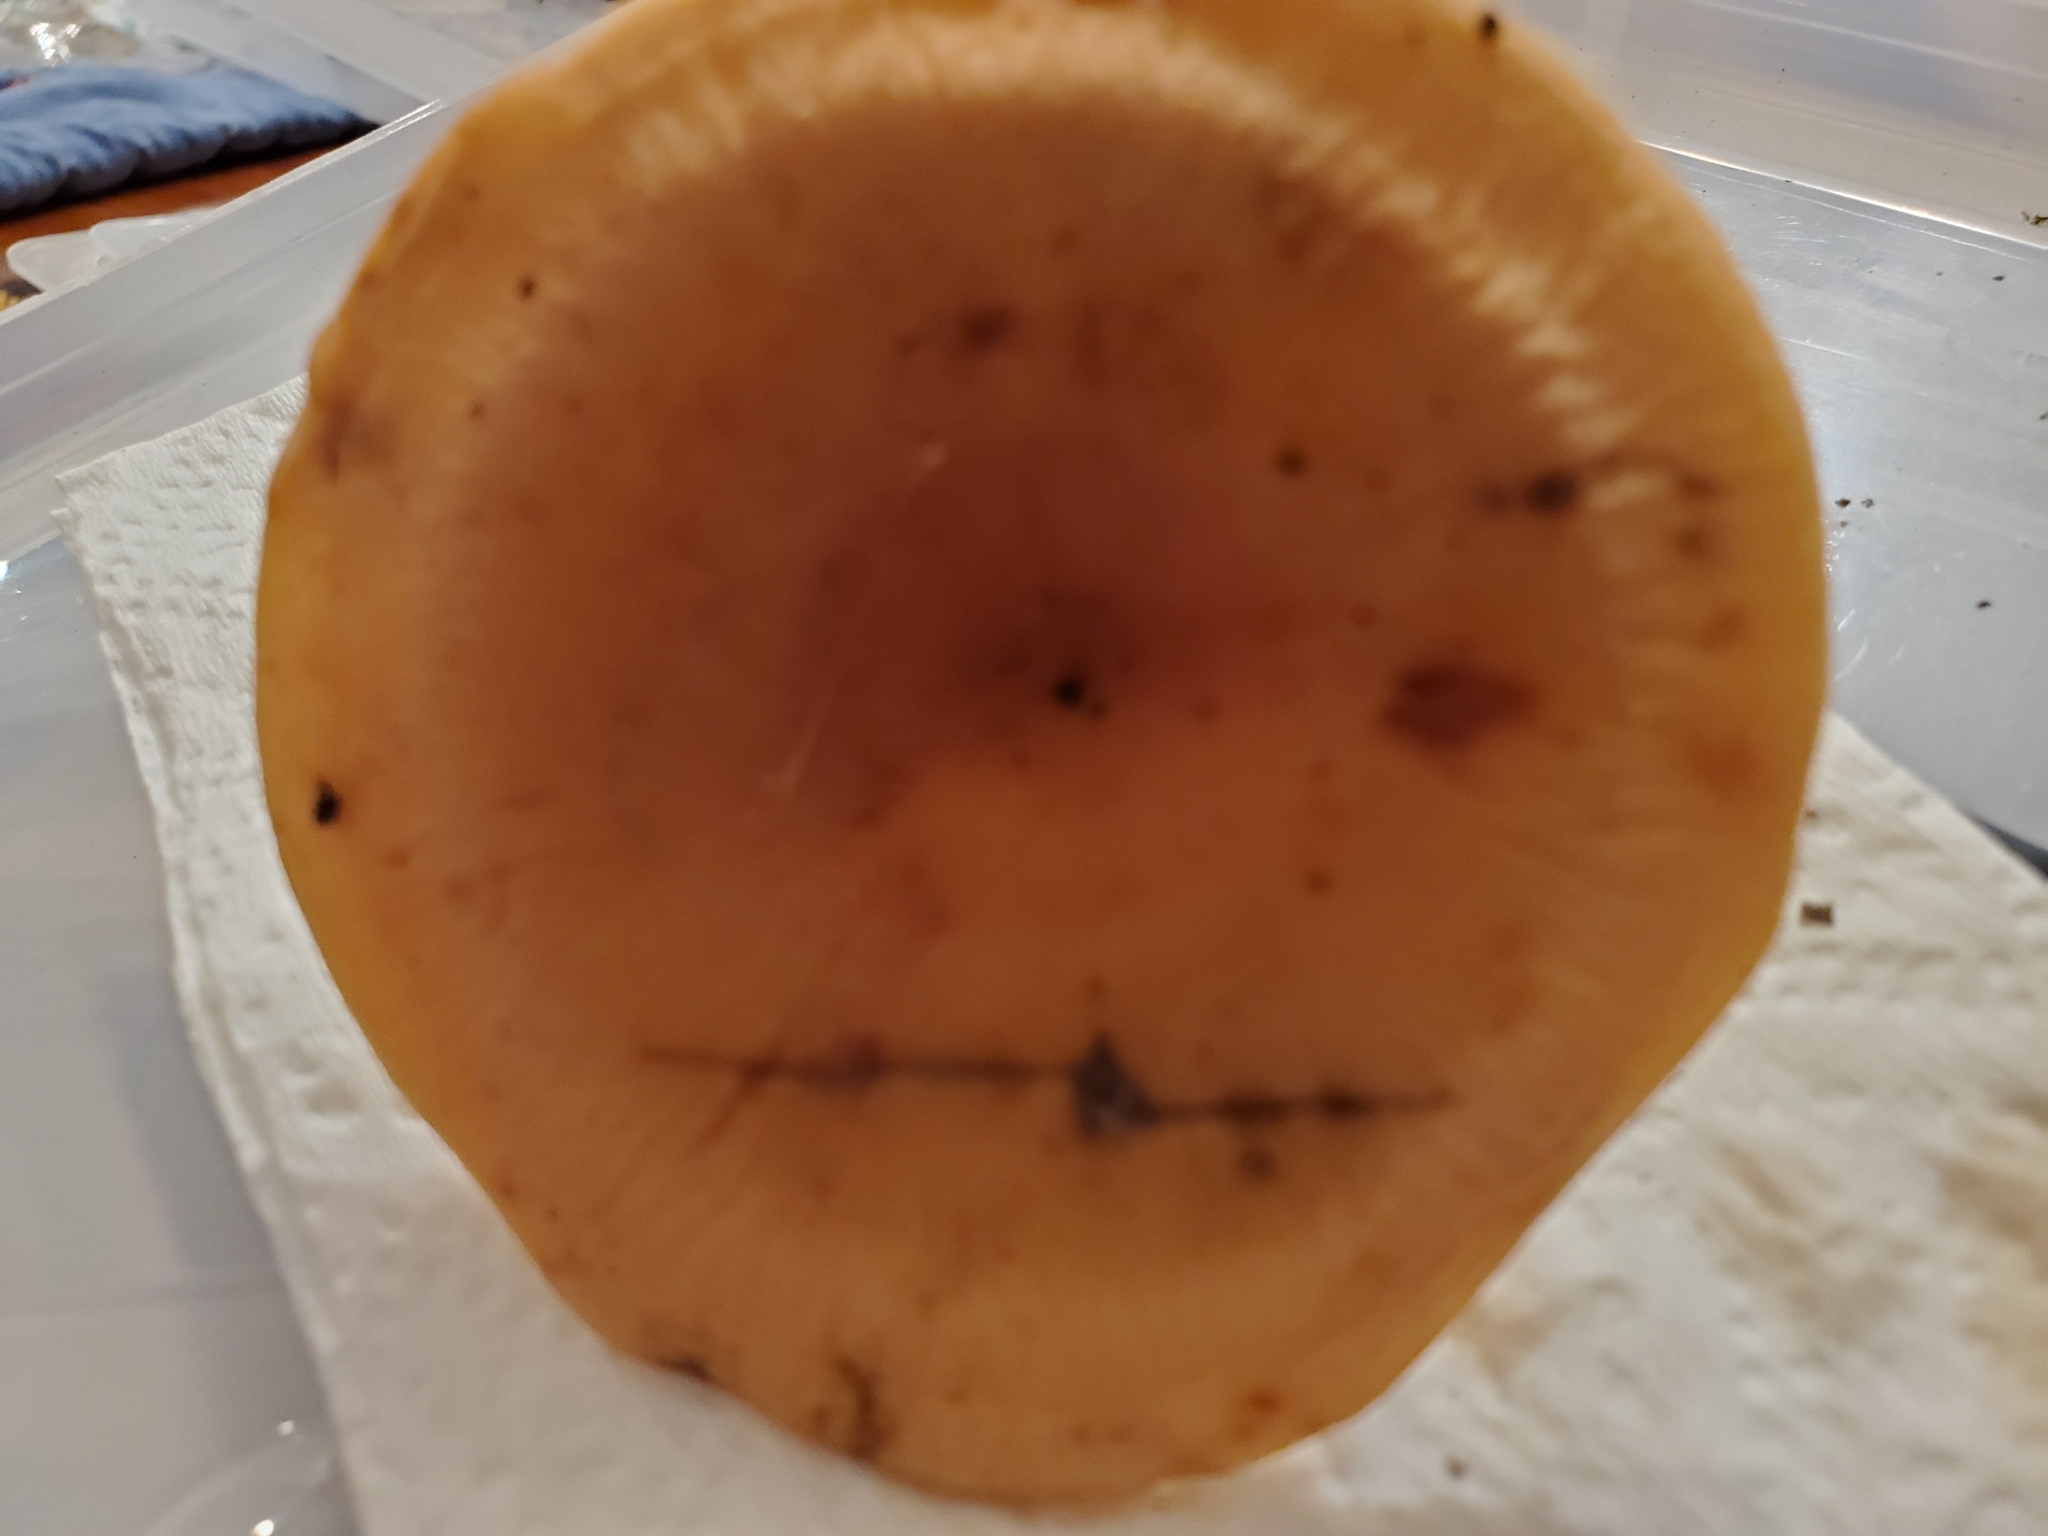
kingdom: Fungi
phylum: Basidiomycota
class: Agaricomycetes
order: Russulales
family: Russulaceae
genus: Lactifluus
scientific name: Lactifluus volemus
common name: Fishy milkcap
